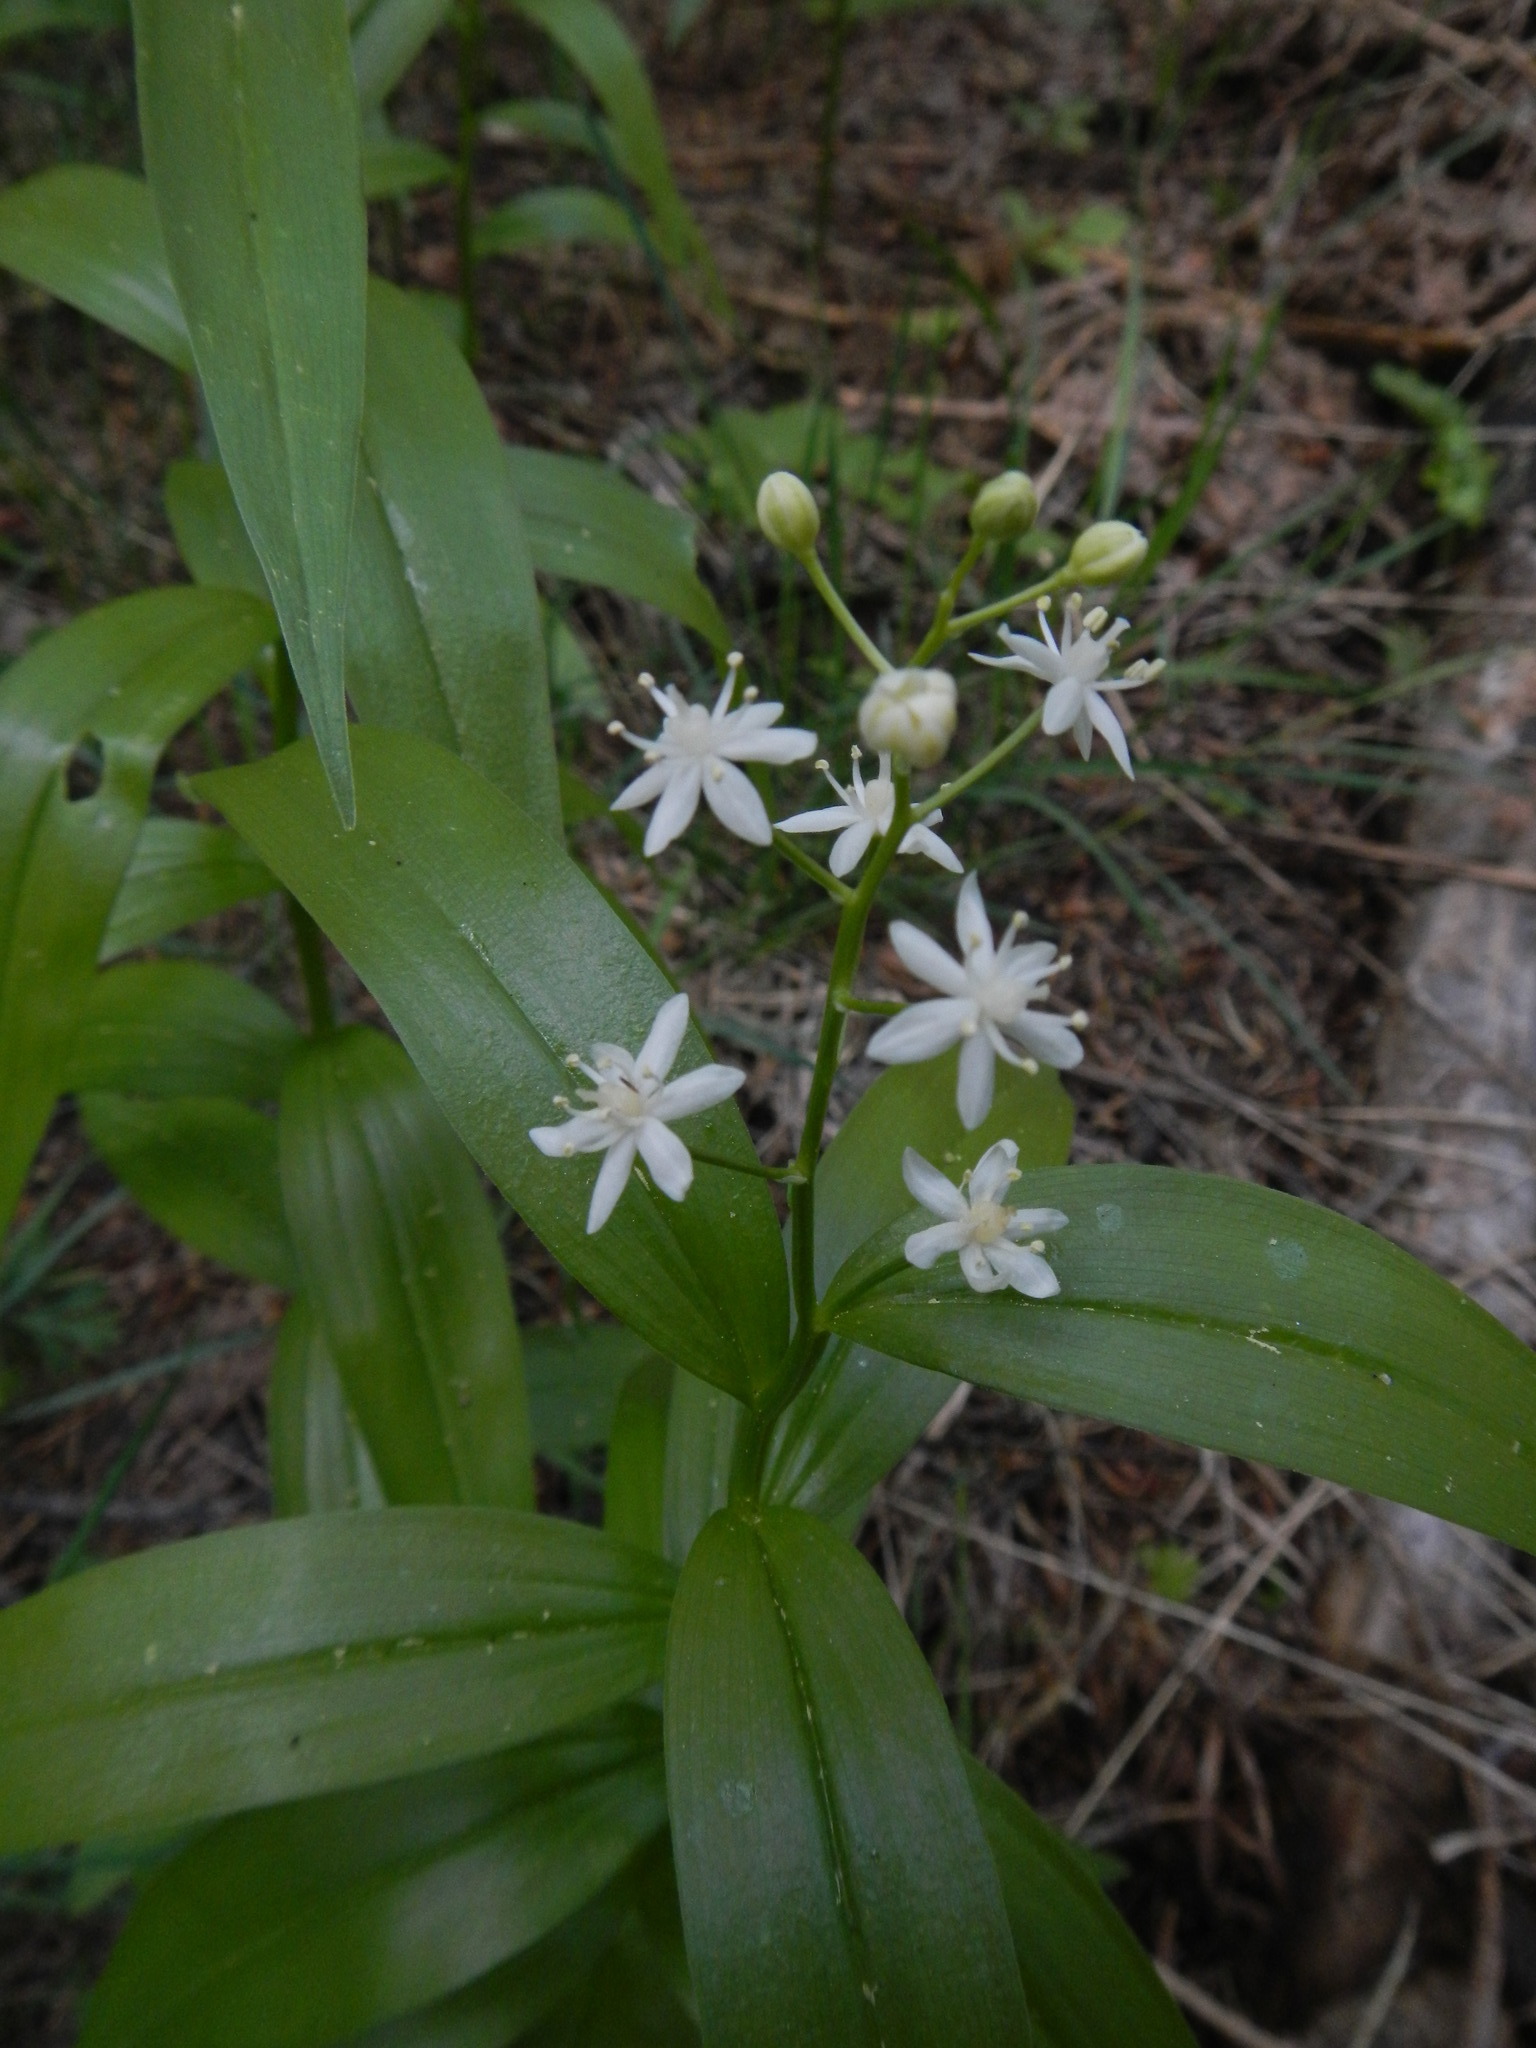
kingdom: Plantae
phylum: Tracheophyta
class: Liliopsida
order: Asparagales
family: Asparagaceae
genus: Maianthemum
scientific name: Maianthemum stellatum
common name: Little false solomon's seal
